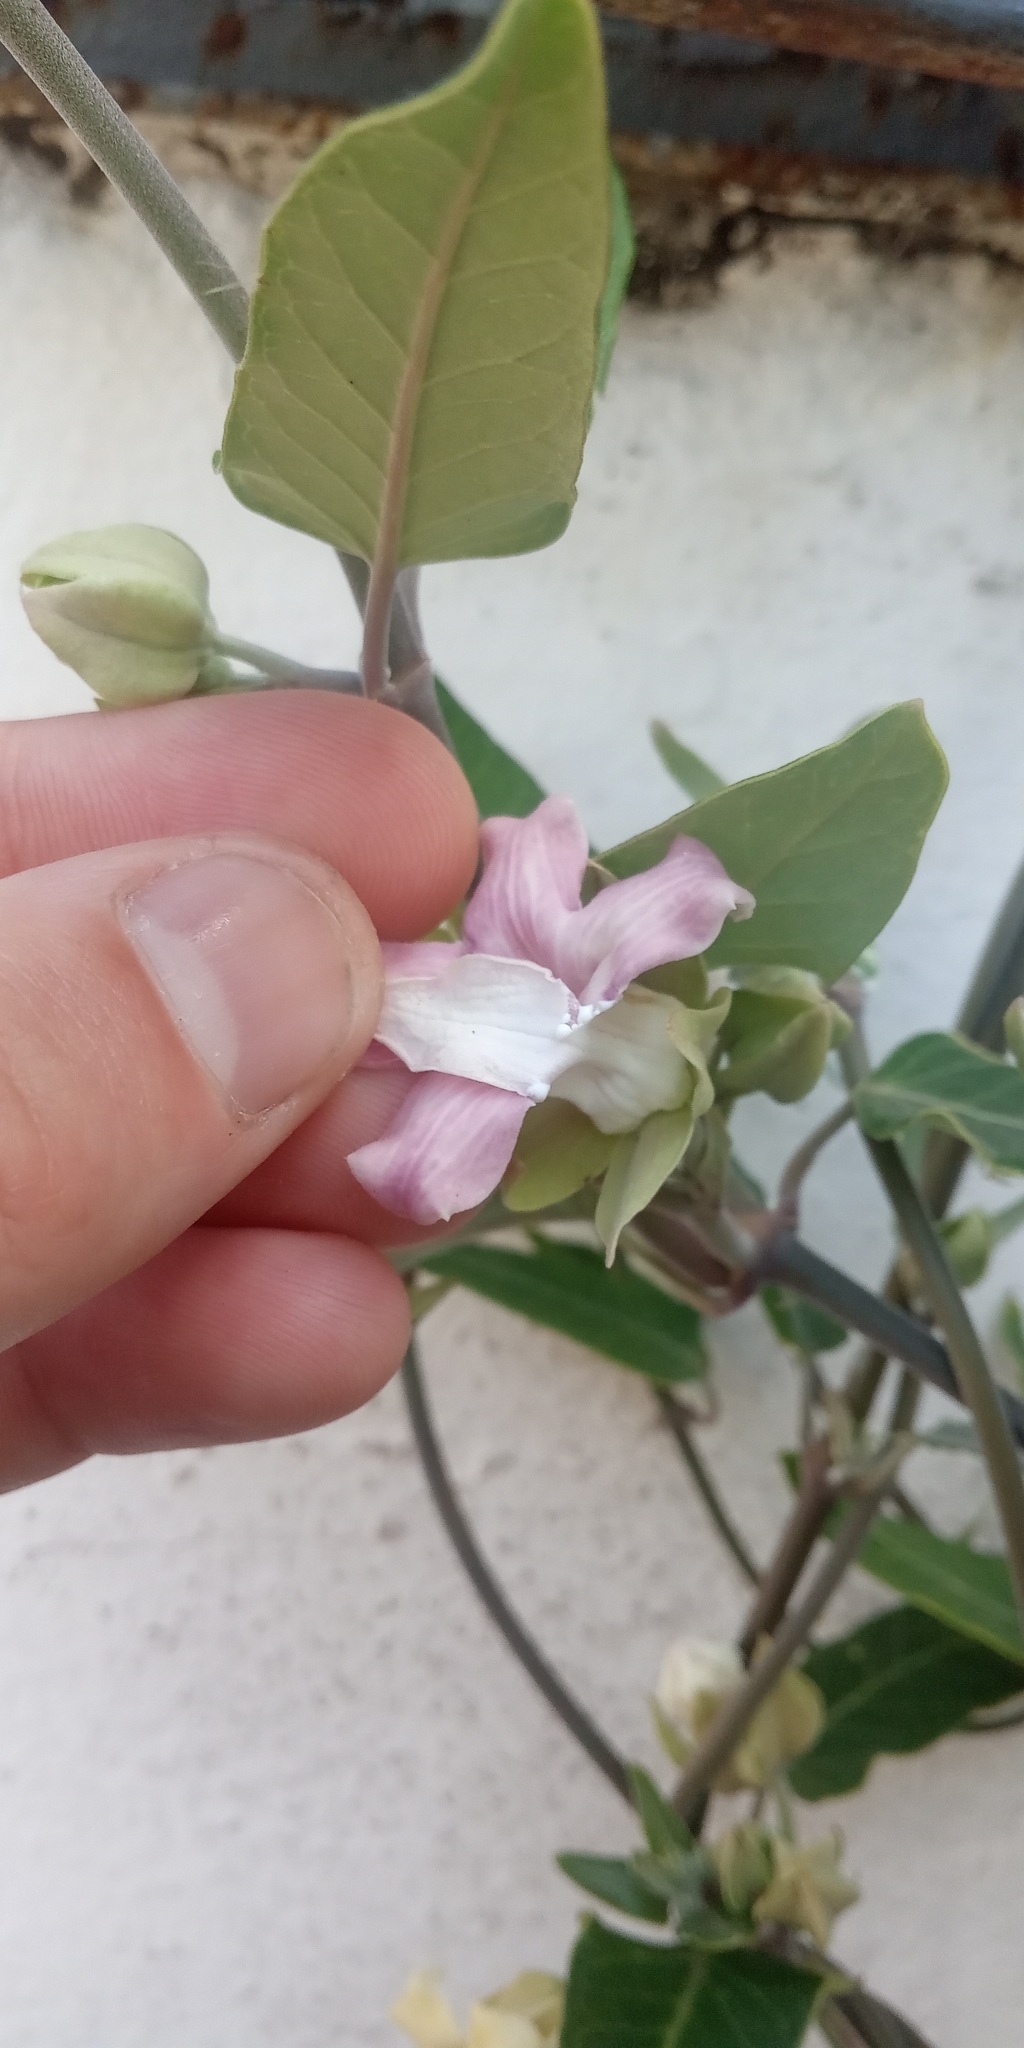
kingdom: Plantae
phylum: Tracheophyta
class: Magnoliopsida
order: Gentianales
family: Apocynaceae
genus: Araujia
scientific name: Araujia sericifera
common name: White bladderflower
